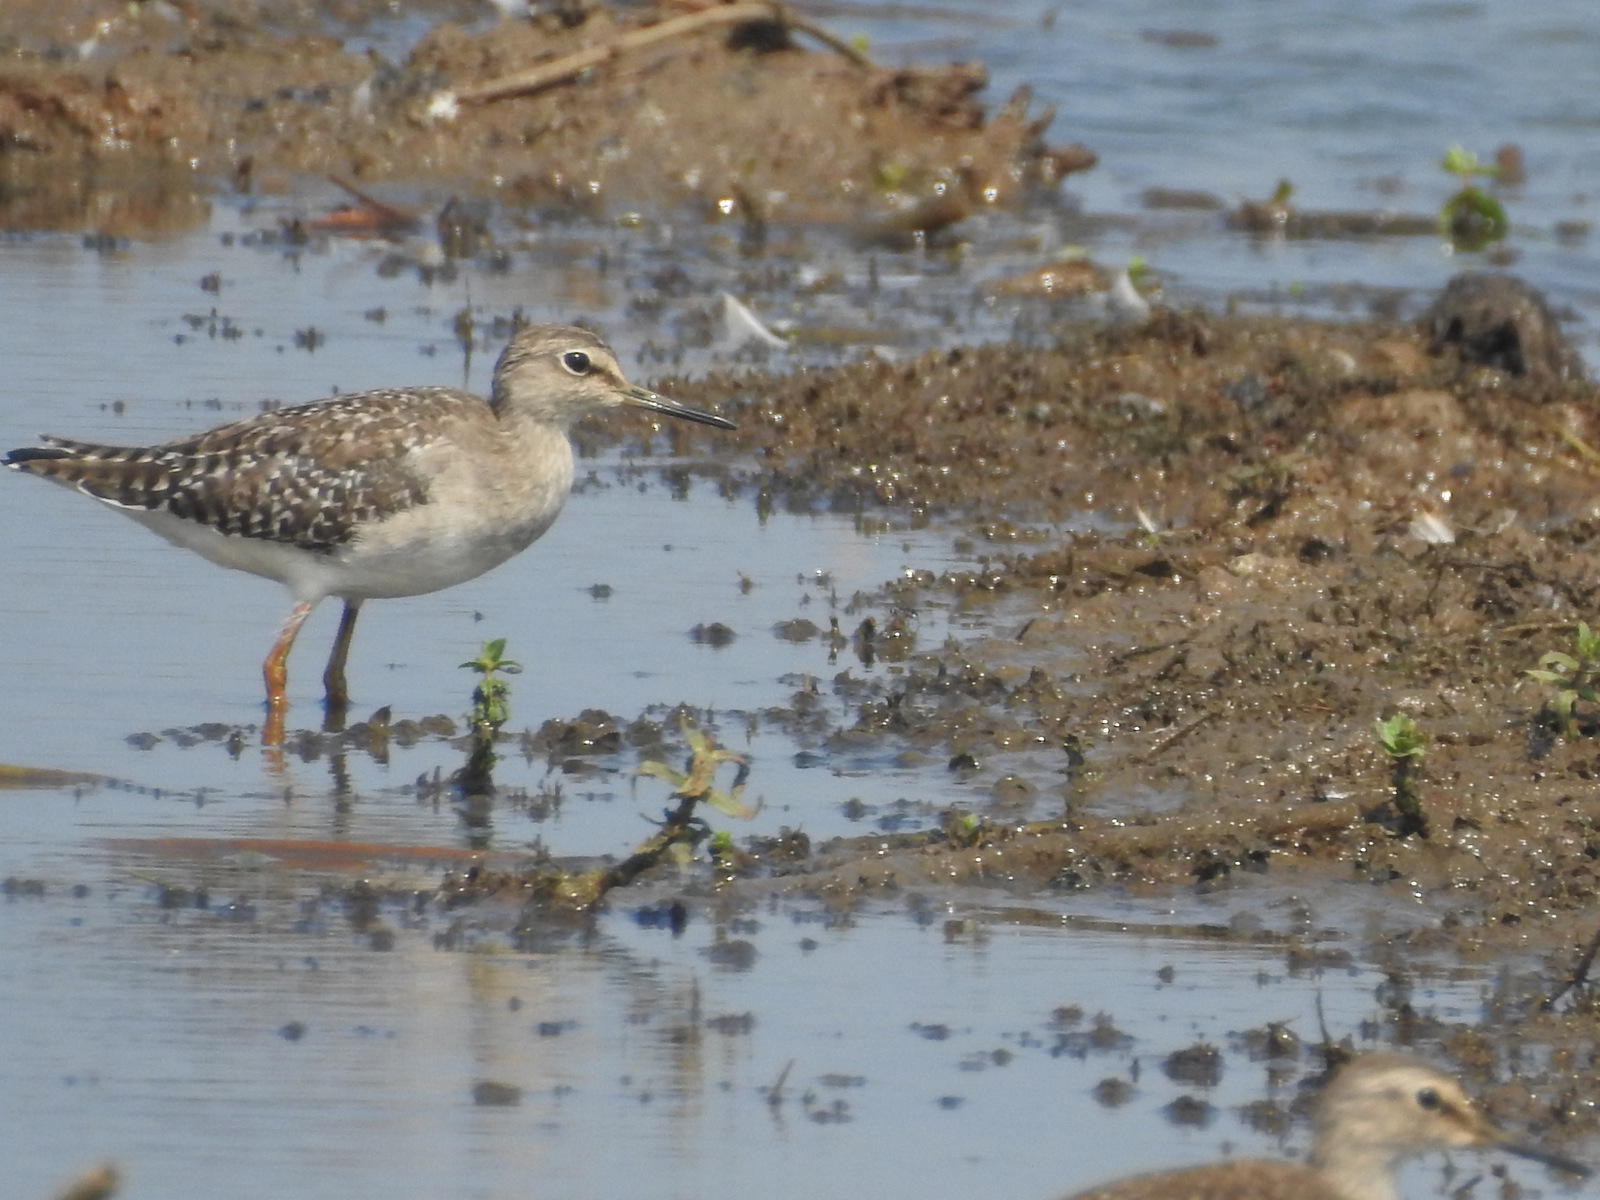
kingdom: Animalia
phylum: Chordata
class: Aves
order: Charadriiformes
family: Scolopacidae
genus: Tringa
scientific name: Tringa glareola
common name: Wood sandpiper
